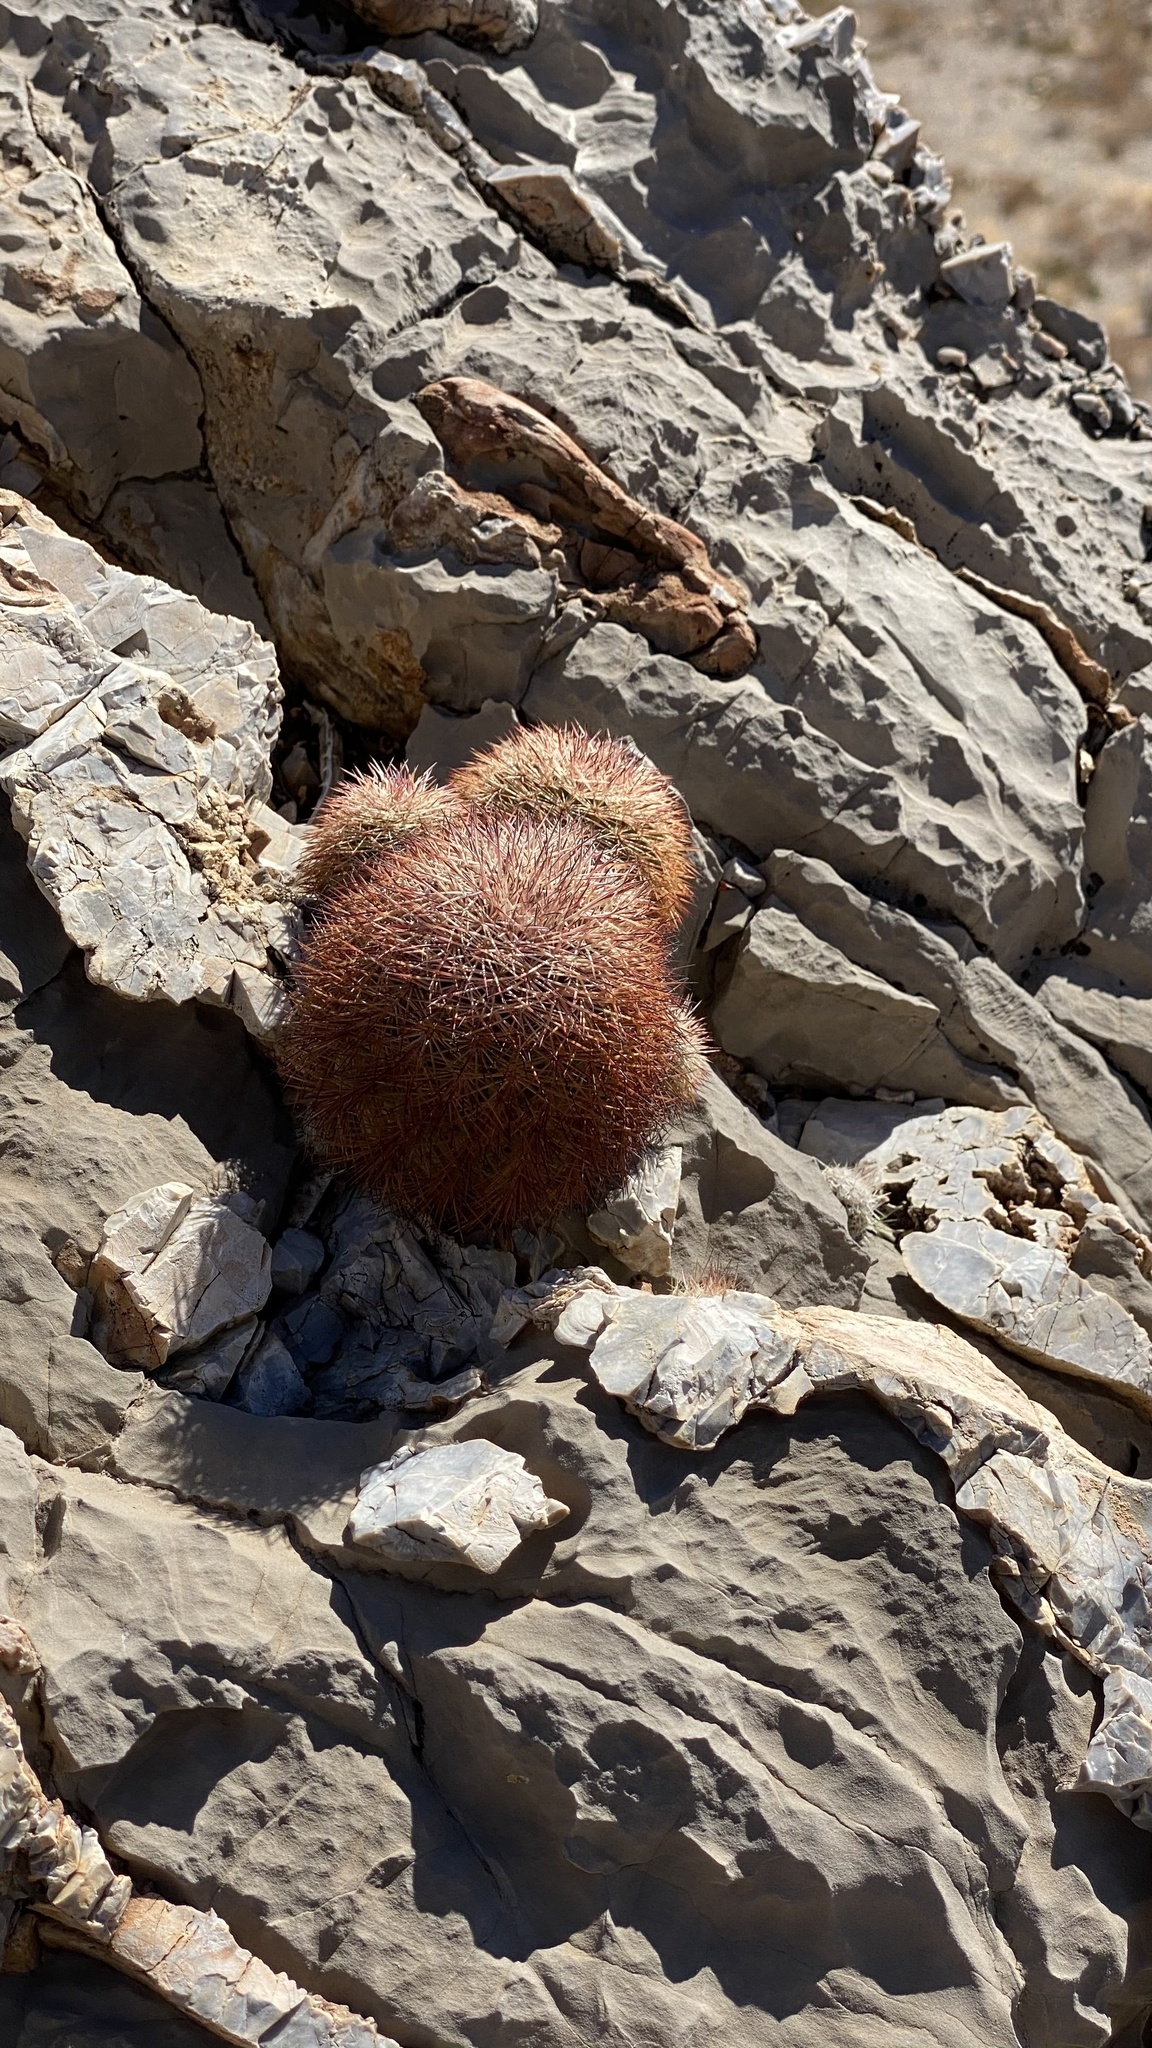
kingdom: Plantae
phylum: Tracheophyta
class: Magnoliopsida
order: Caryophyllales
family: Cactaceae
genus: Echinocereus
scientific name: Echinocereus dasyacanthus
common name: Spiny hedgehog cactus
